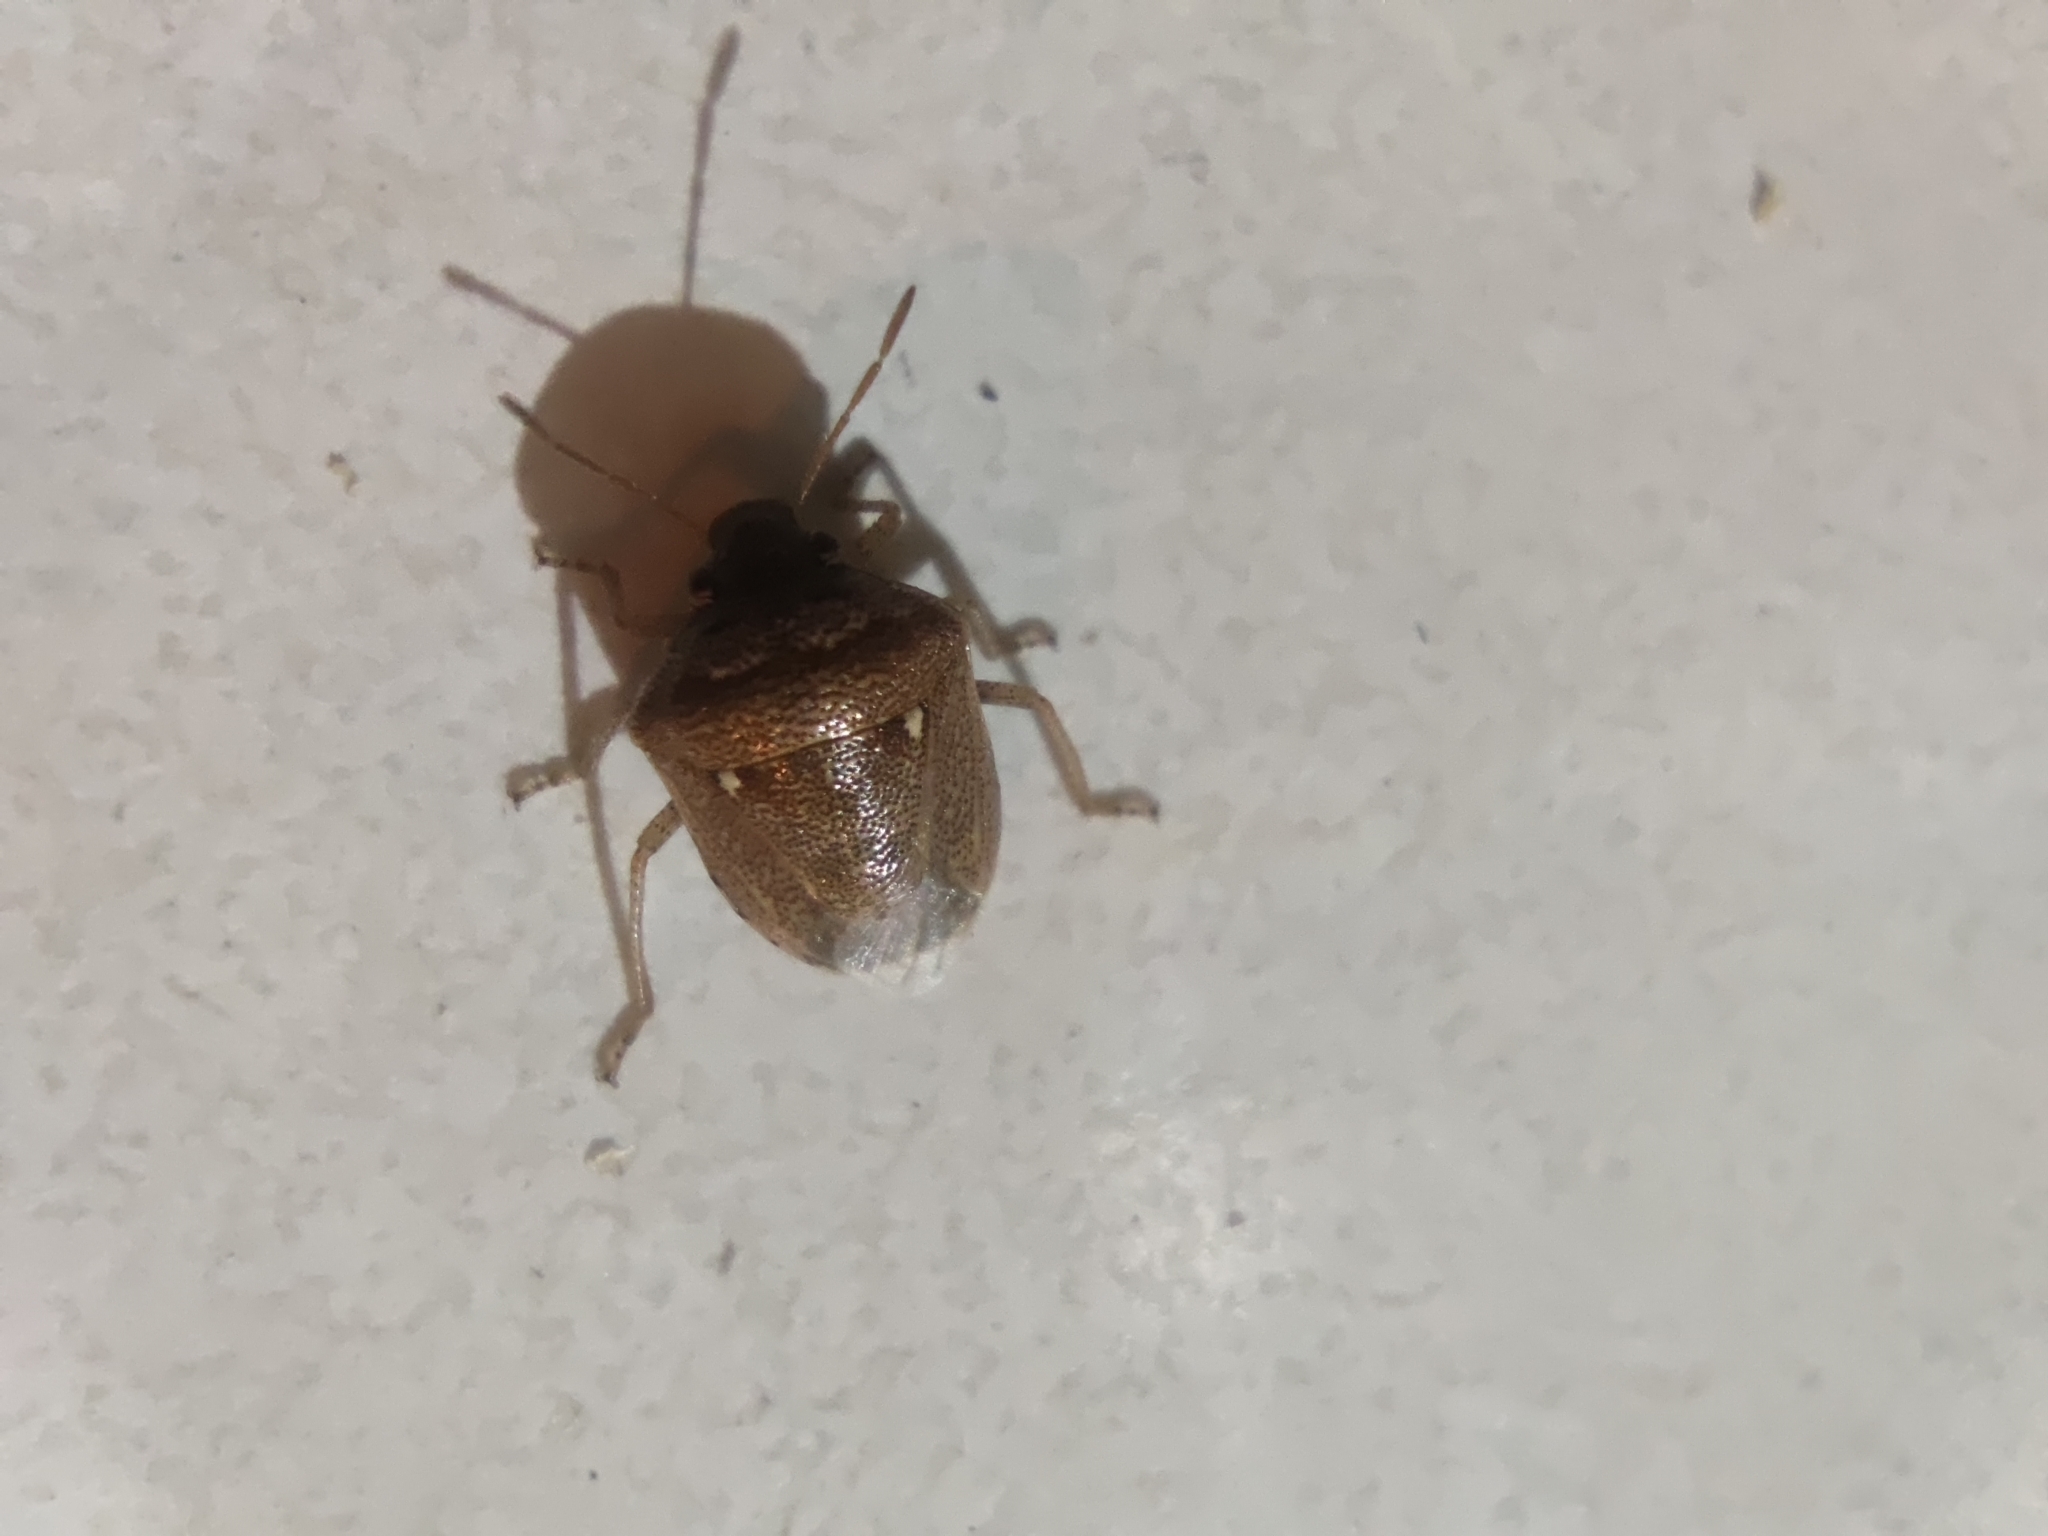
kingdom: Animalia
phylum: Arthropoda
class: Insecta
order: Hemiptera
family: Pentatomidae
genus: Eysarcoris
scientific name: Eysarcoris ventralis
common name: White-spotted stink bug
